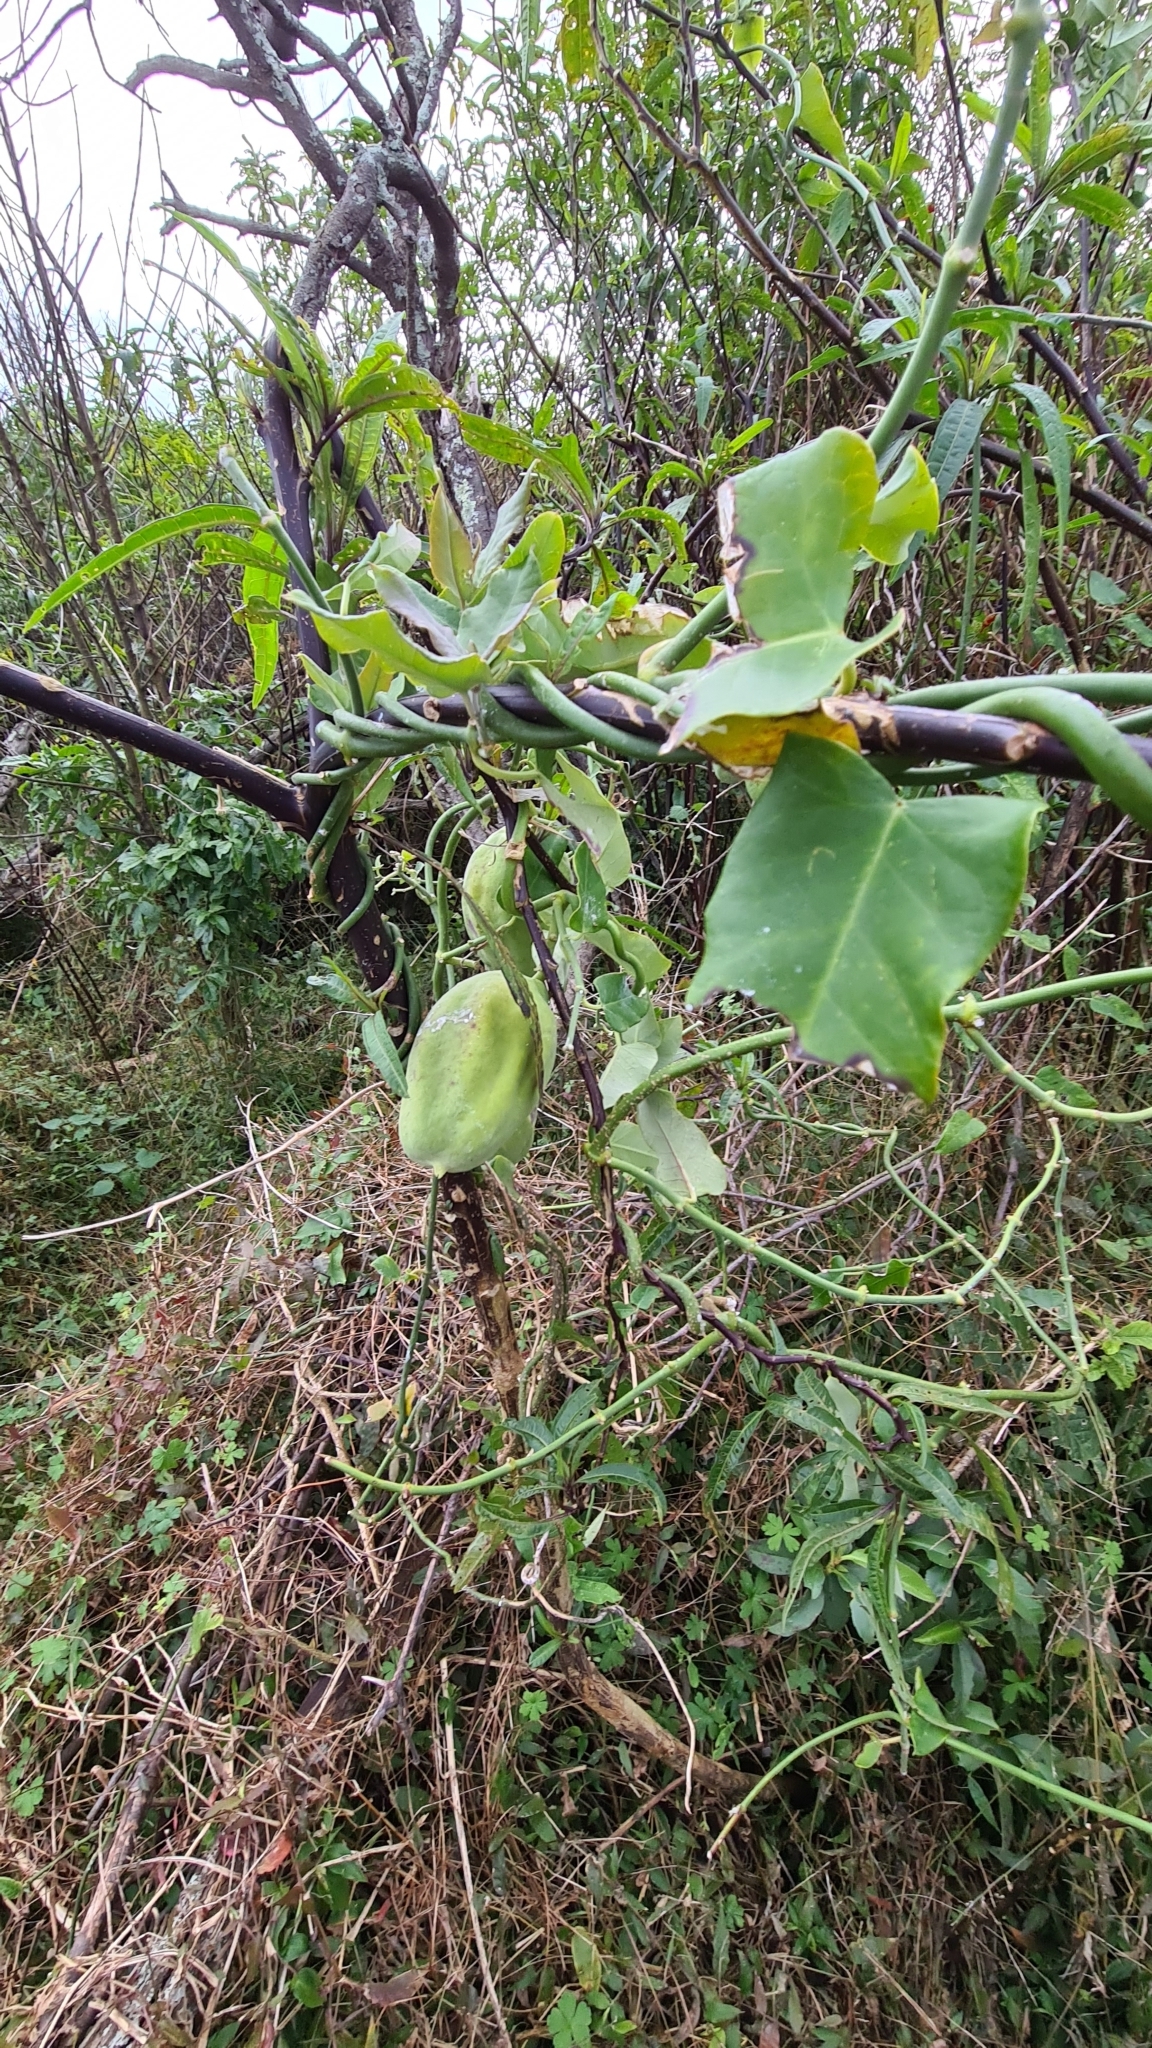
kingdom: Plantae
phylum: Tracheophyta
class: Magnoliopsida
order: Gentianales
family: Apocynaceae
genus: Araujia
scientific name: Araujia sericifera
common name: White bladderflower
